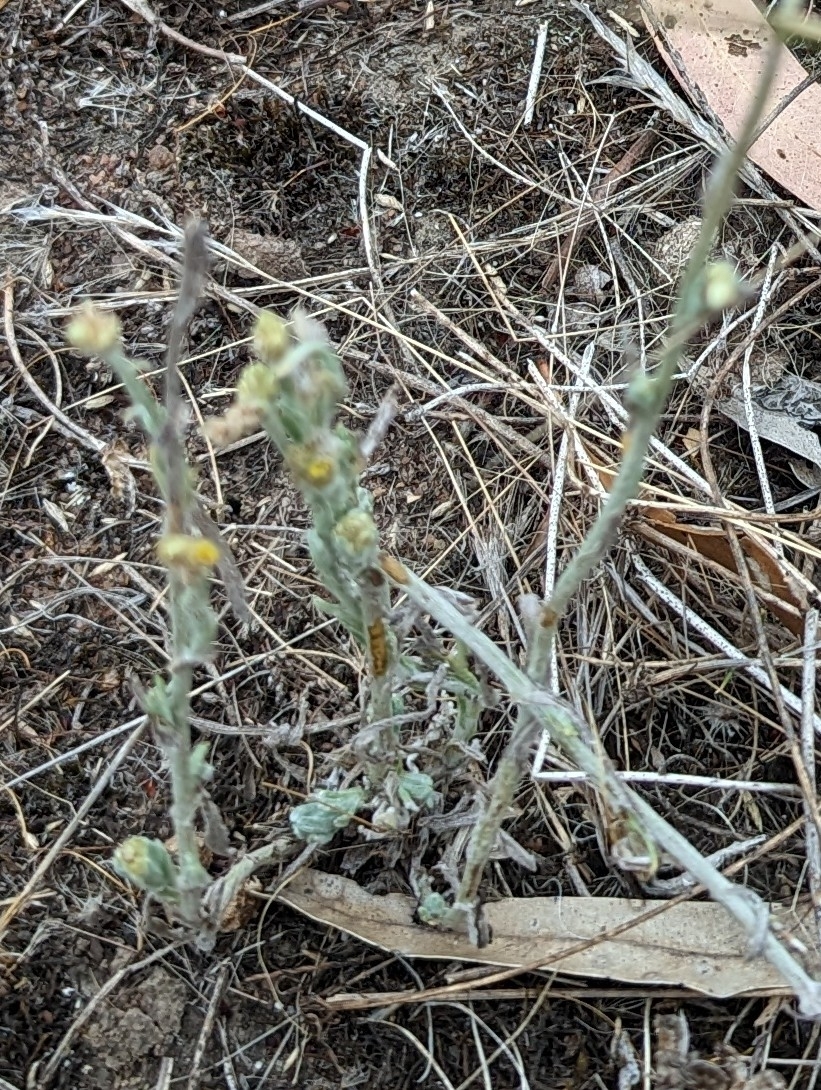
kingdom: Plantae
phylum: Tracheophyta
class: Magnoliopsida
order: Asterales
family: Asteraceae
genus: Helichrysum
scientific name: Helichrysum luteoalbum
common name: Daisy
